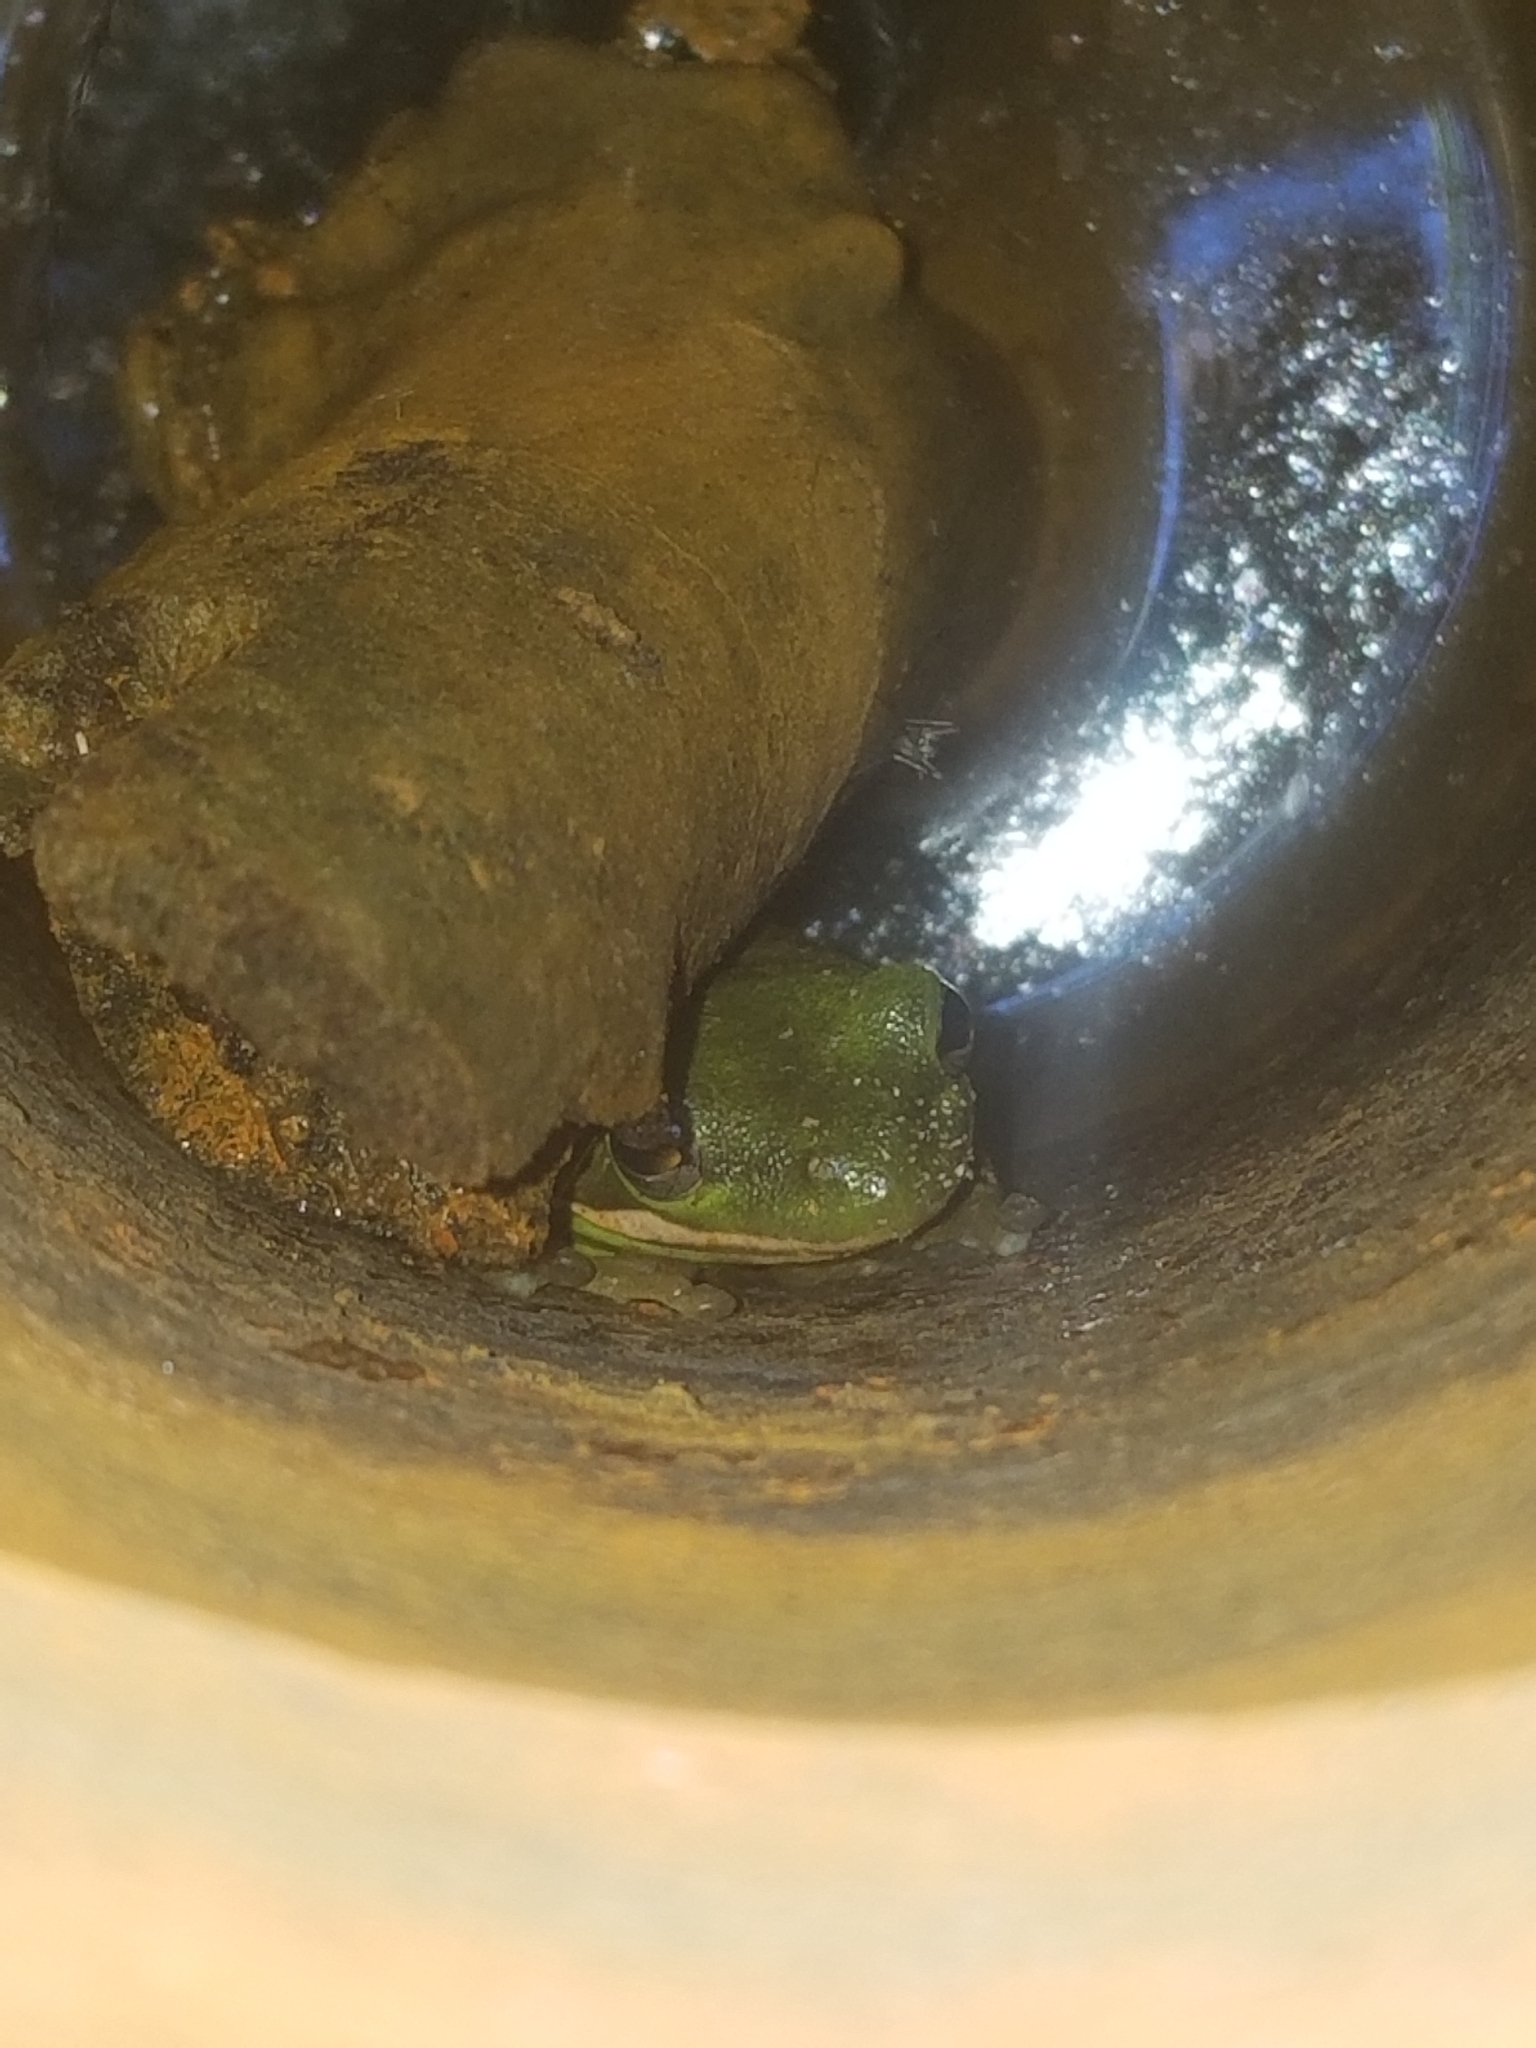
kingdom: Animalia
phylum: Chordata
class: Amphibia
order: Anura
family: Hylidae
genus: Dryophytes
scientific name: Dryophytes cinereus
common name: Green treefrog
